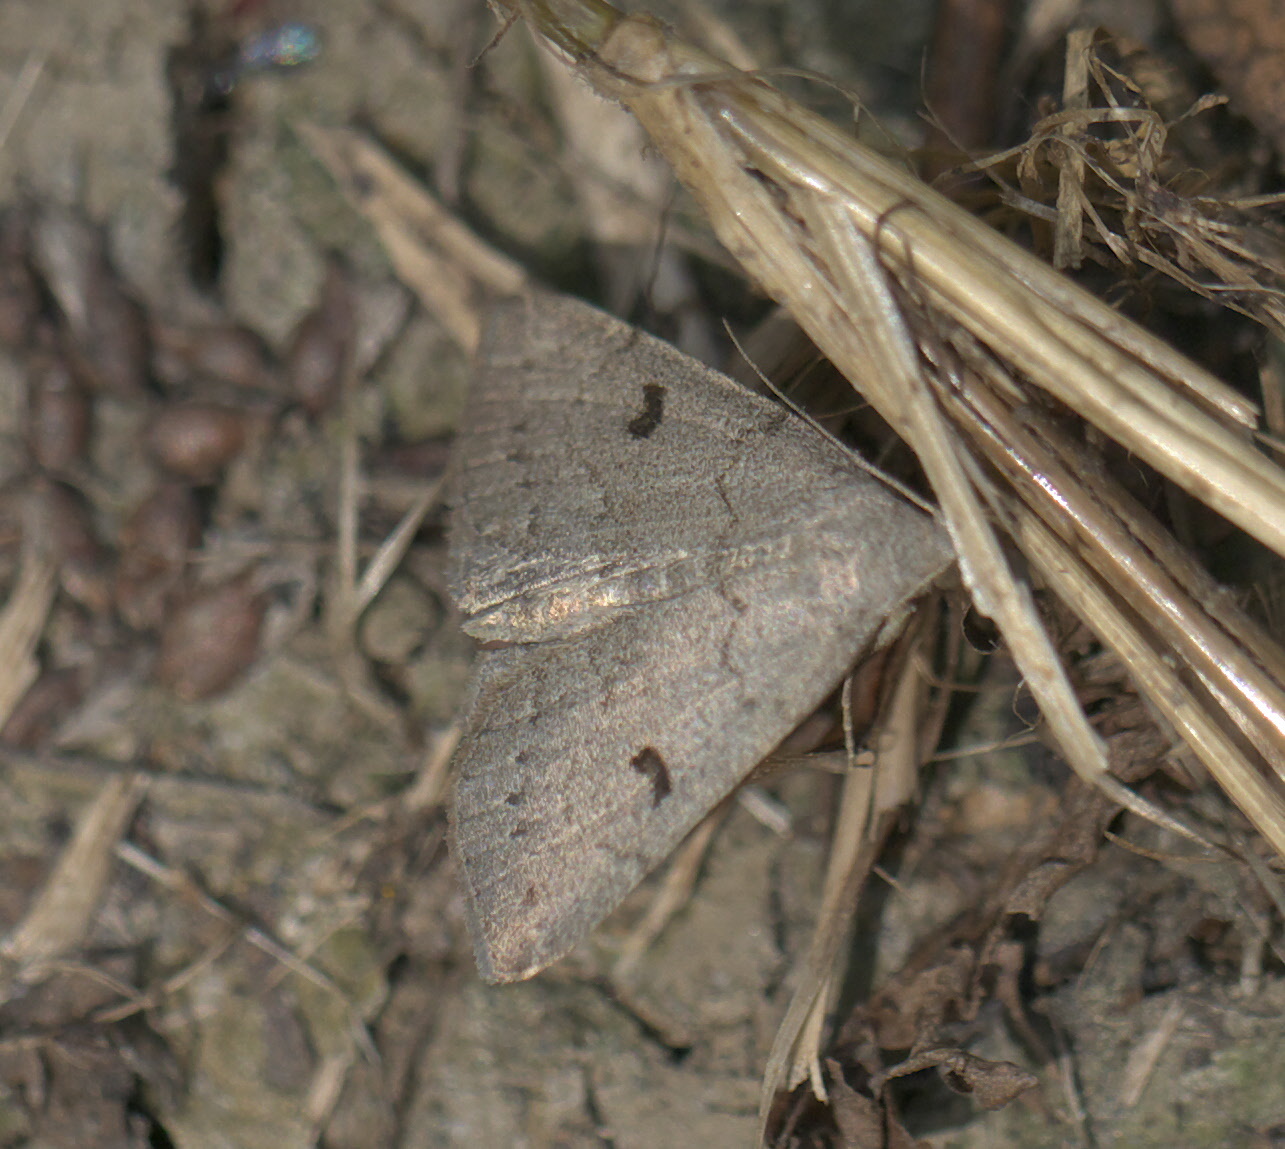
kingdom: Animalia
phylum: Arthropoda
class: Insecta
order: Lepidoptera
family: Erebidae
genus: Macrochilo
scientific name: Macrochilo morbidalis
